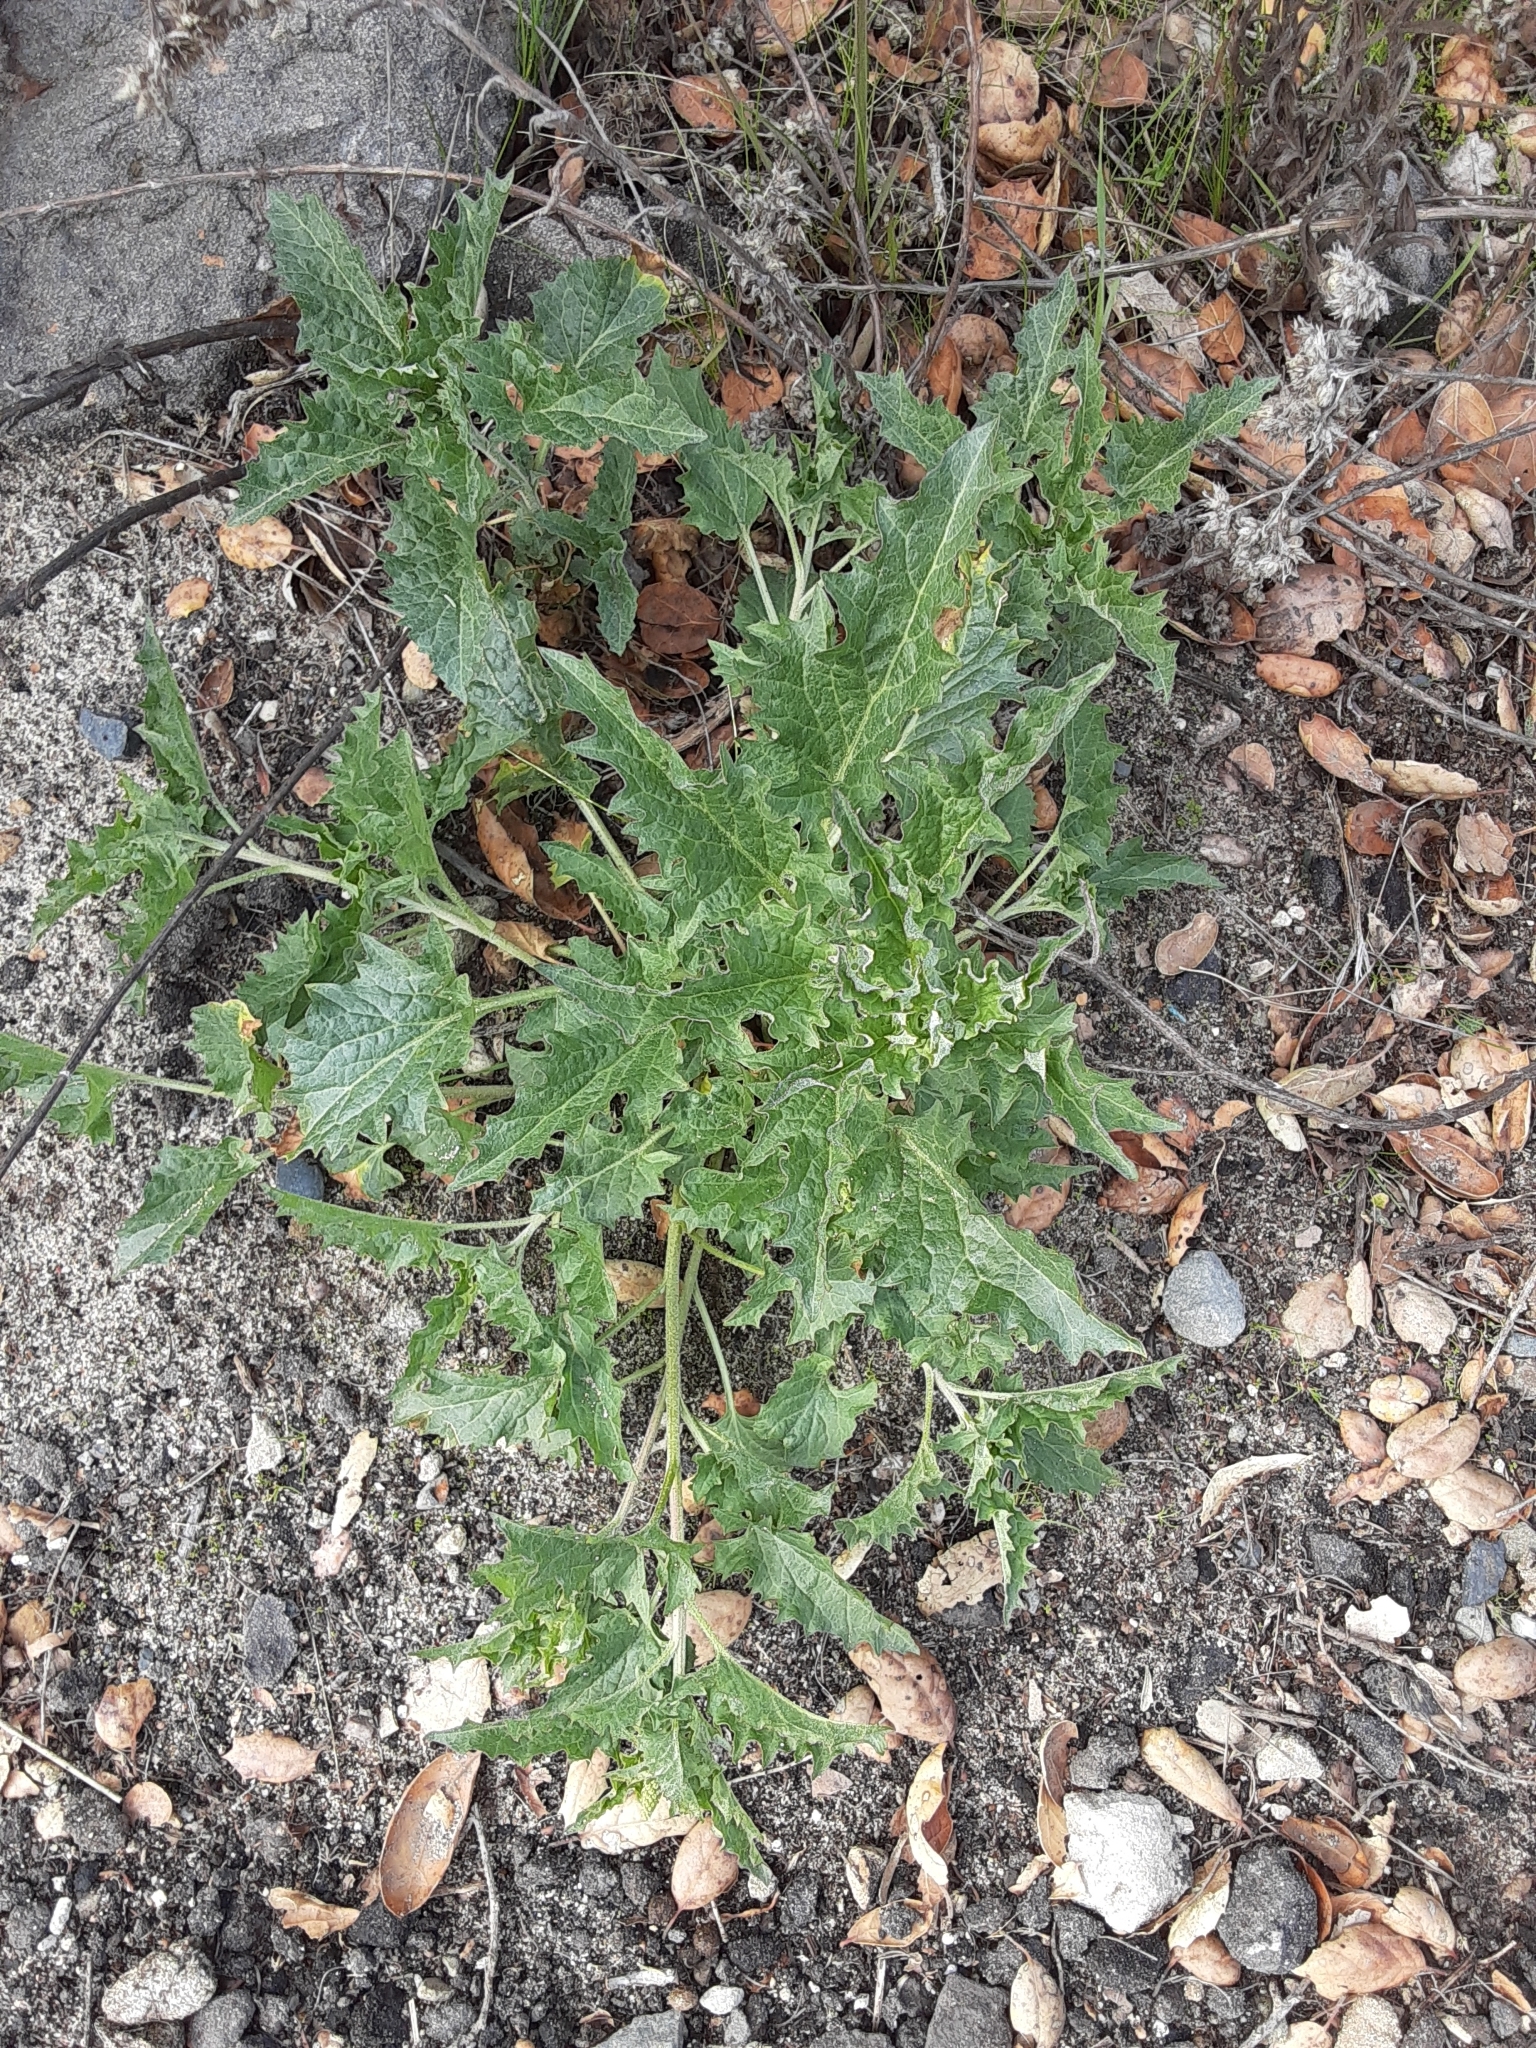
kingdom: Plantae
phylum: Tracheophyta
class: Magnoliopsida
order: Caryophyllales
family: Amaranthaceae
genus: Blitum
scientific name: Blitum californicum
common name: California goosefoot
